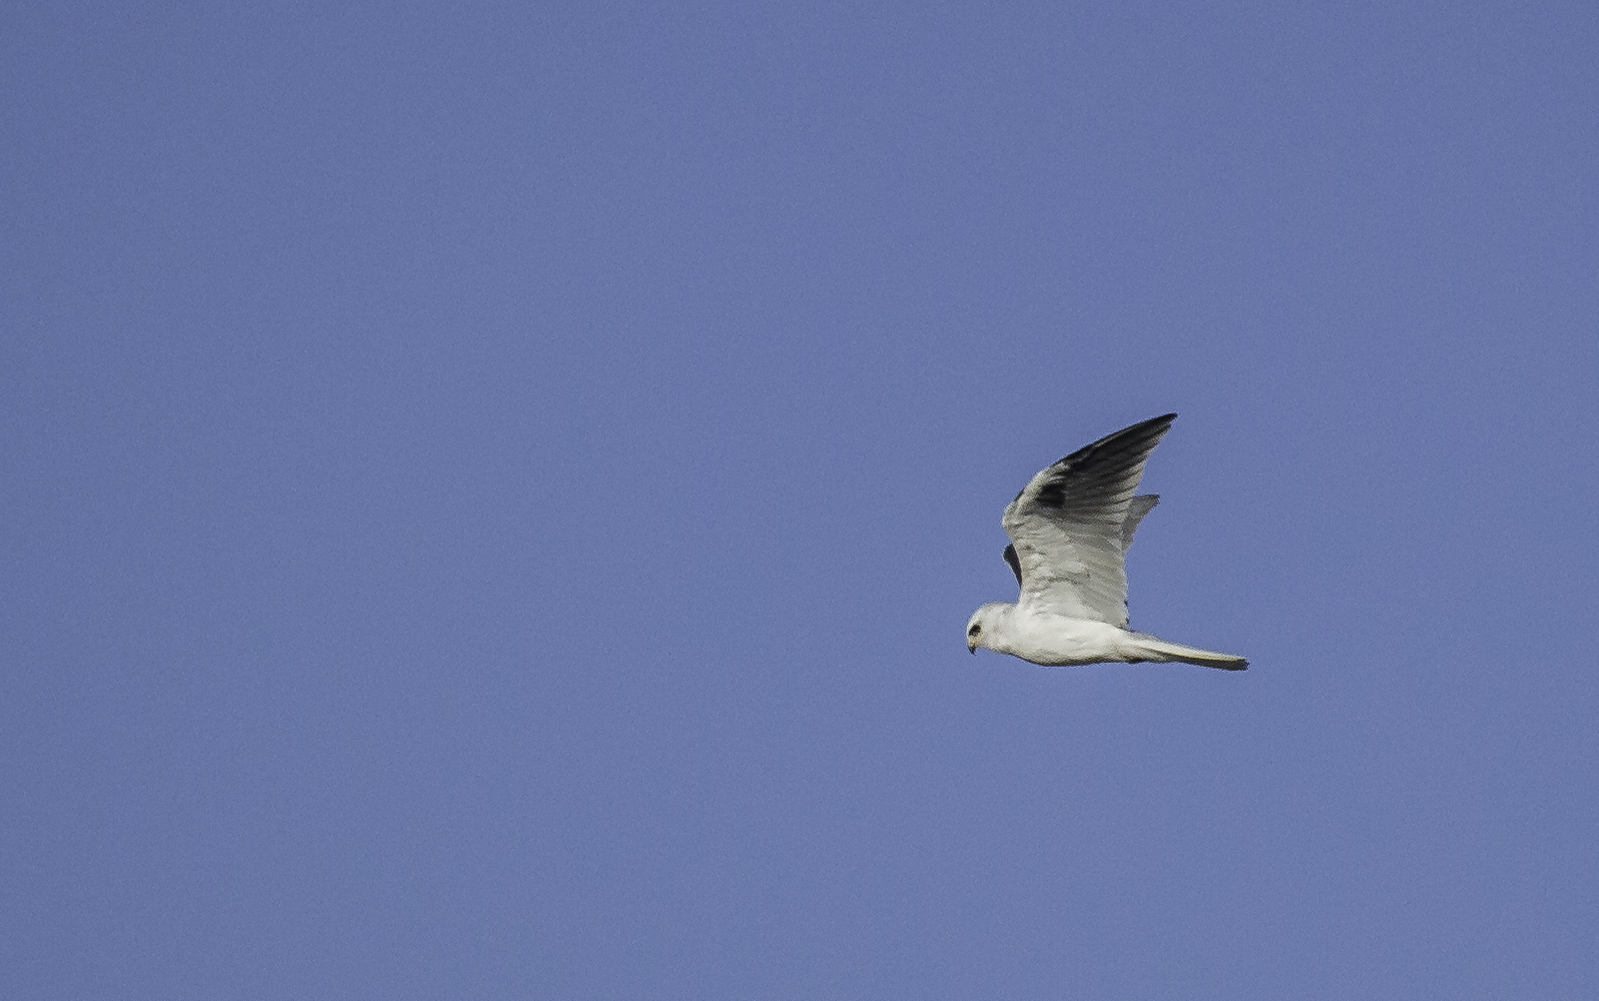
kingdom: Animalia
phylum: Chordata
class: Aves
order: Accipitriformes
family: Accipitridae
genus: Elanus
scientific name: Elanus leucurus
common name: White-tailed kite
